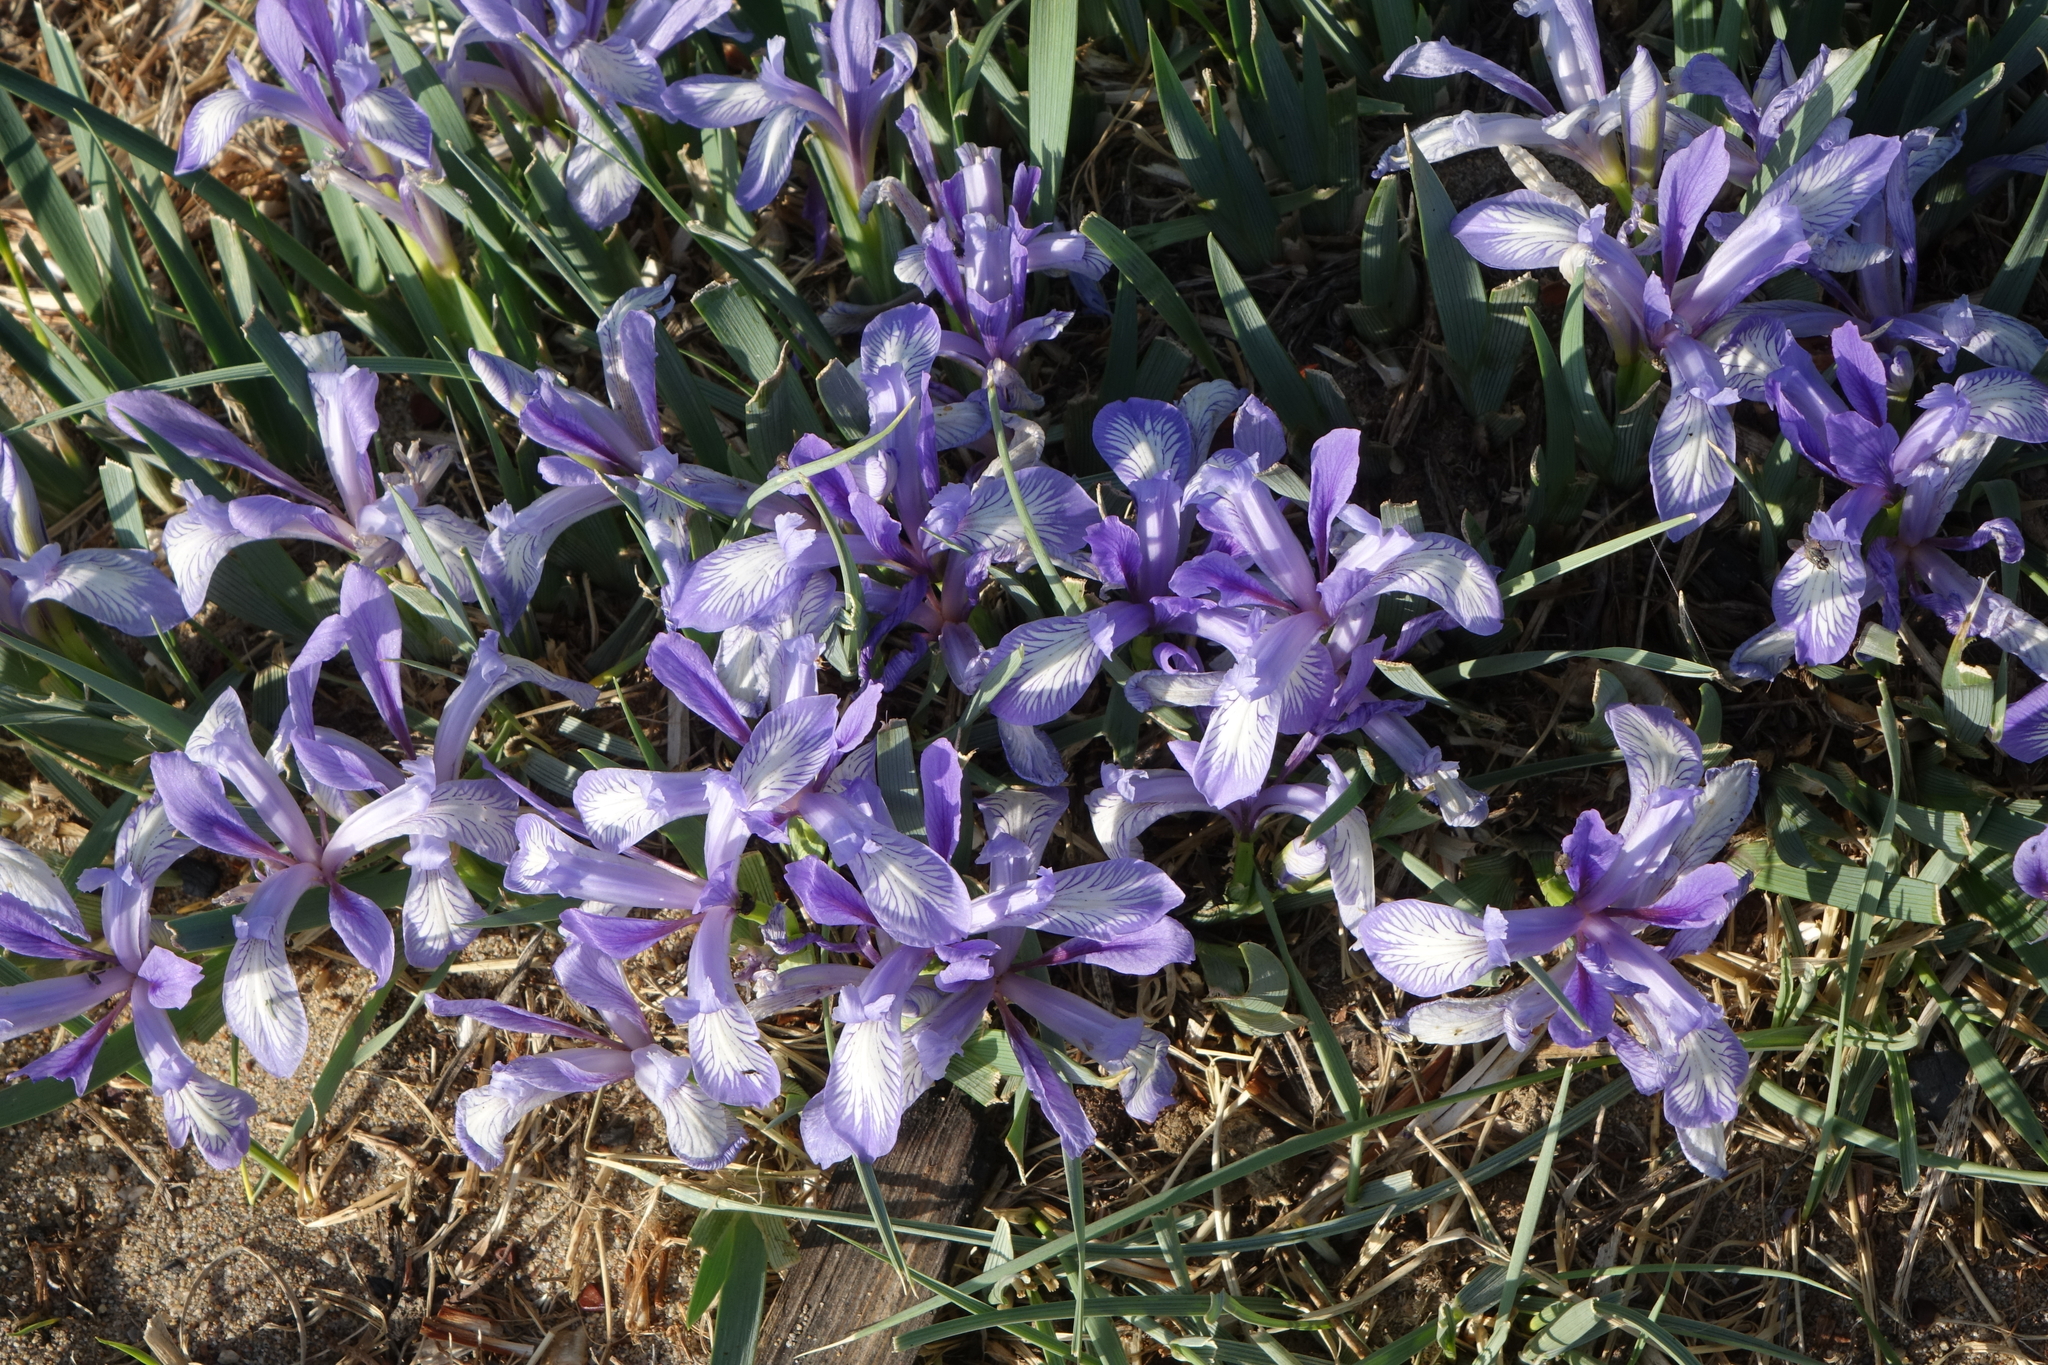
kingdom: Plantae
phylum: Tracheophyta
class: Liliopsida
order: Asparagales
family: Iridaceae
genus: Iris
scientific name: Iris lactea
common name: White-flower chinese iris
